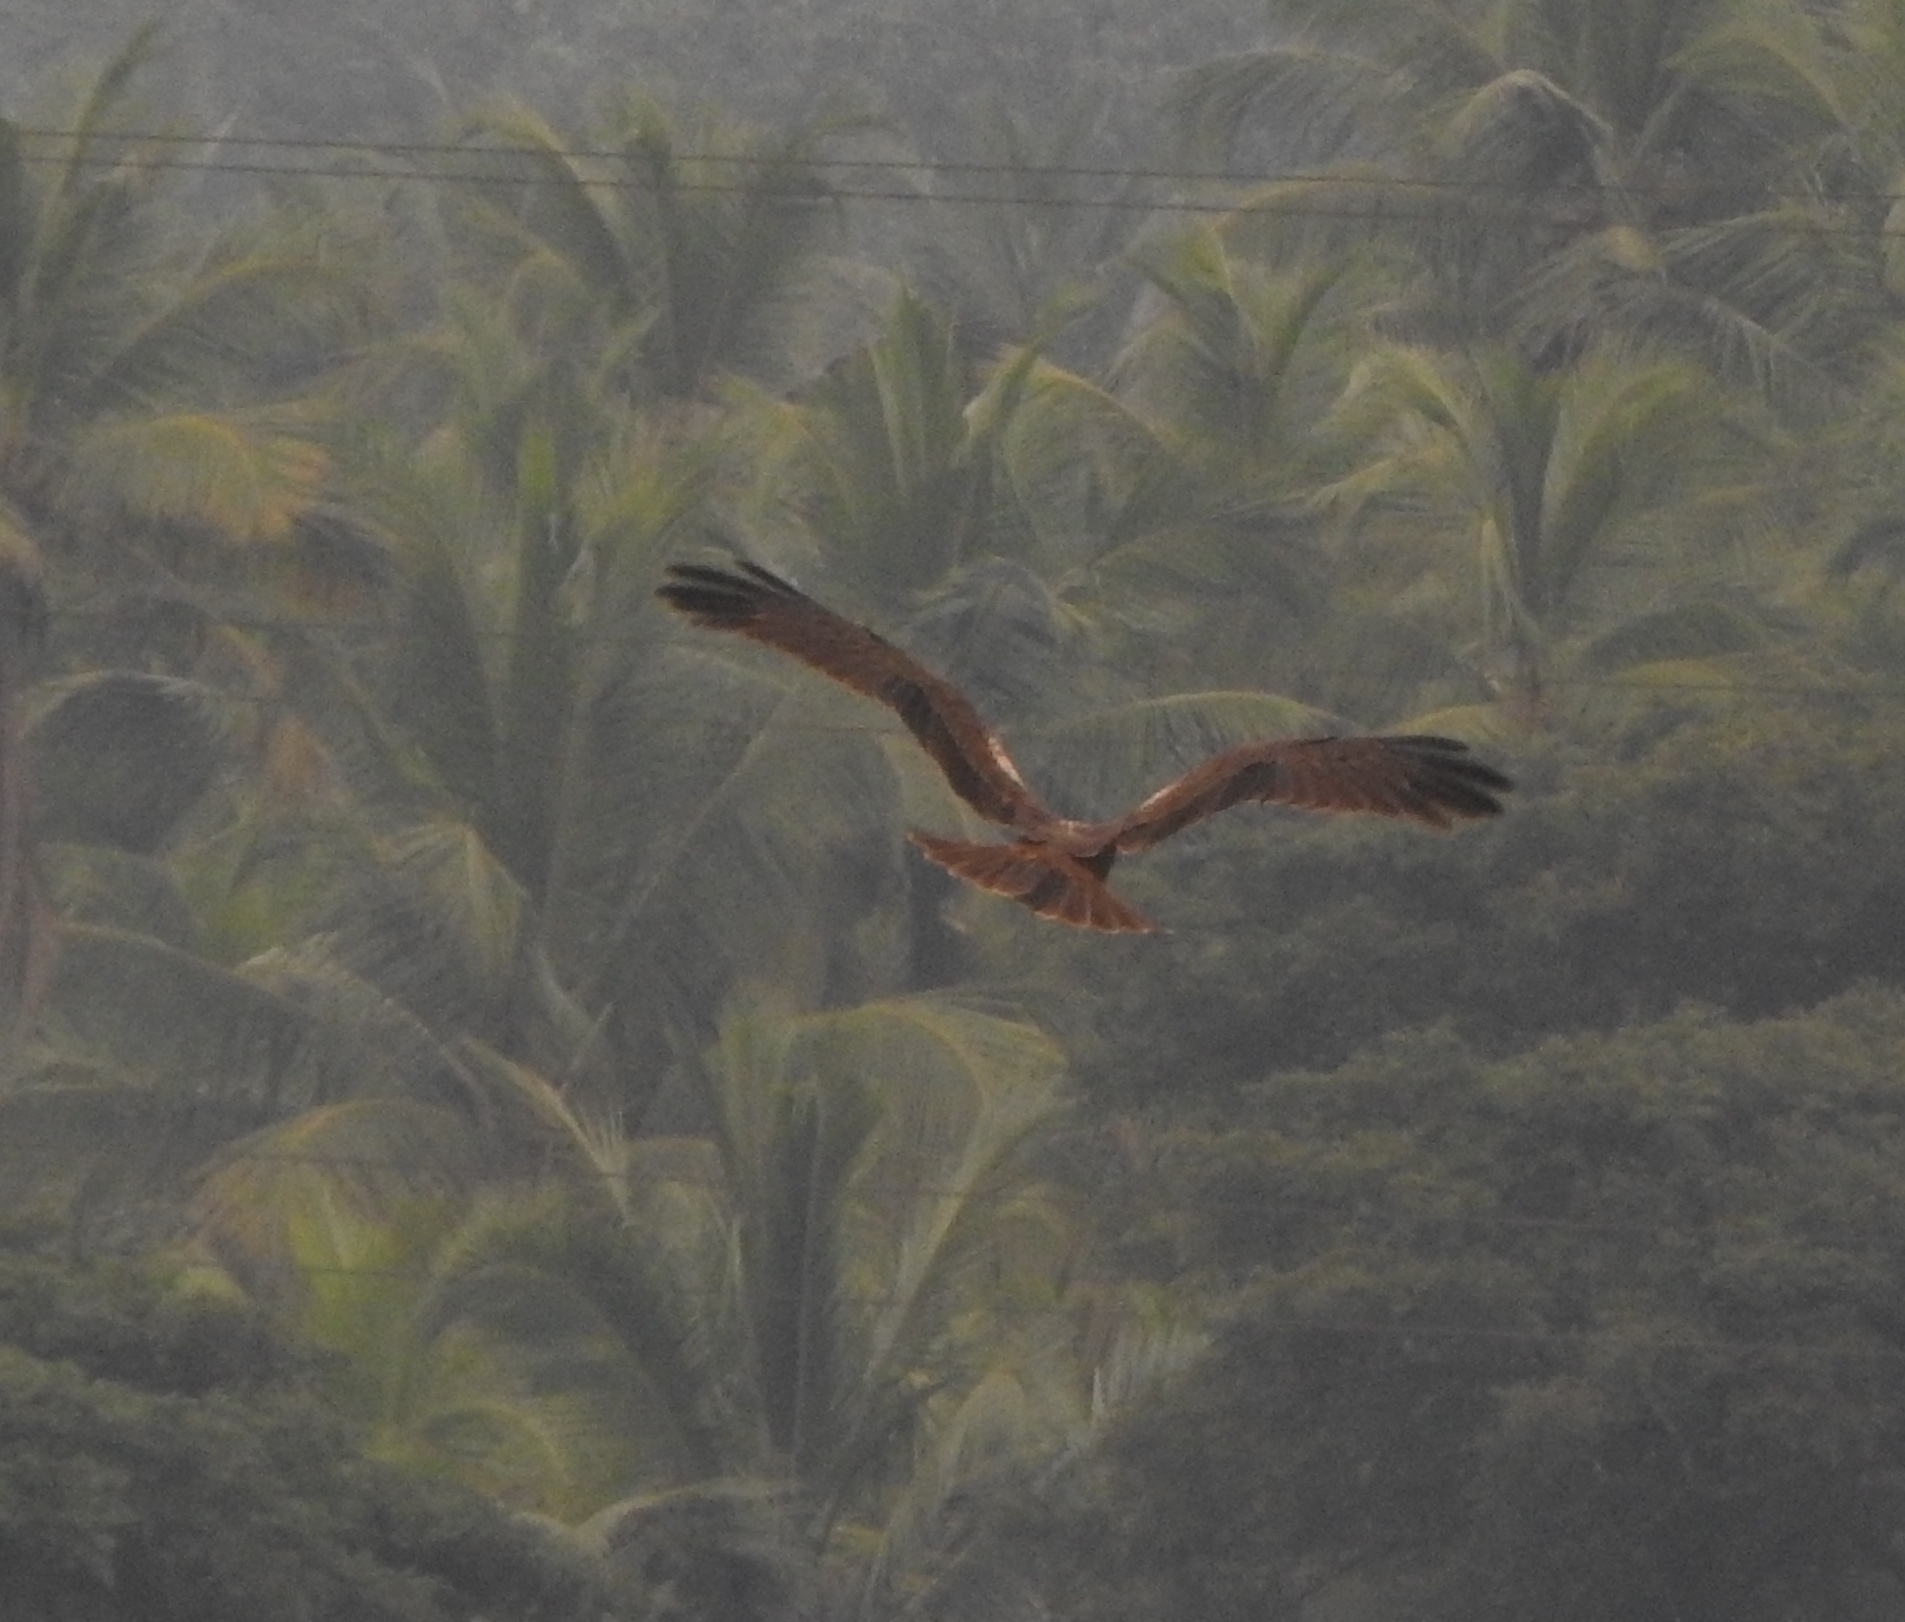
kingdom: Animalia
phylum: Chordata
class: Aves
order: Accipitriformes
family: Accipitridae
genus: Circus
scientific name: Circus aeruginosus
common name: Western marsh harrier
